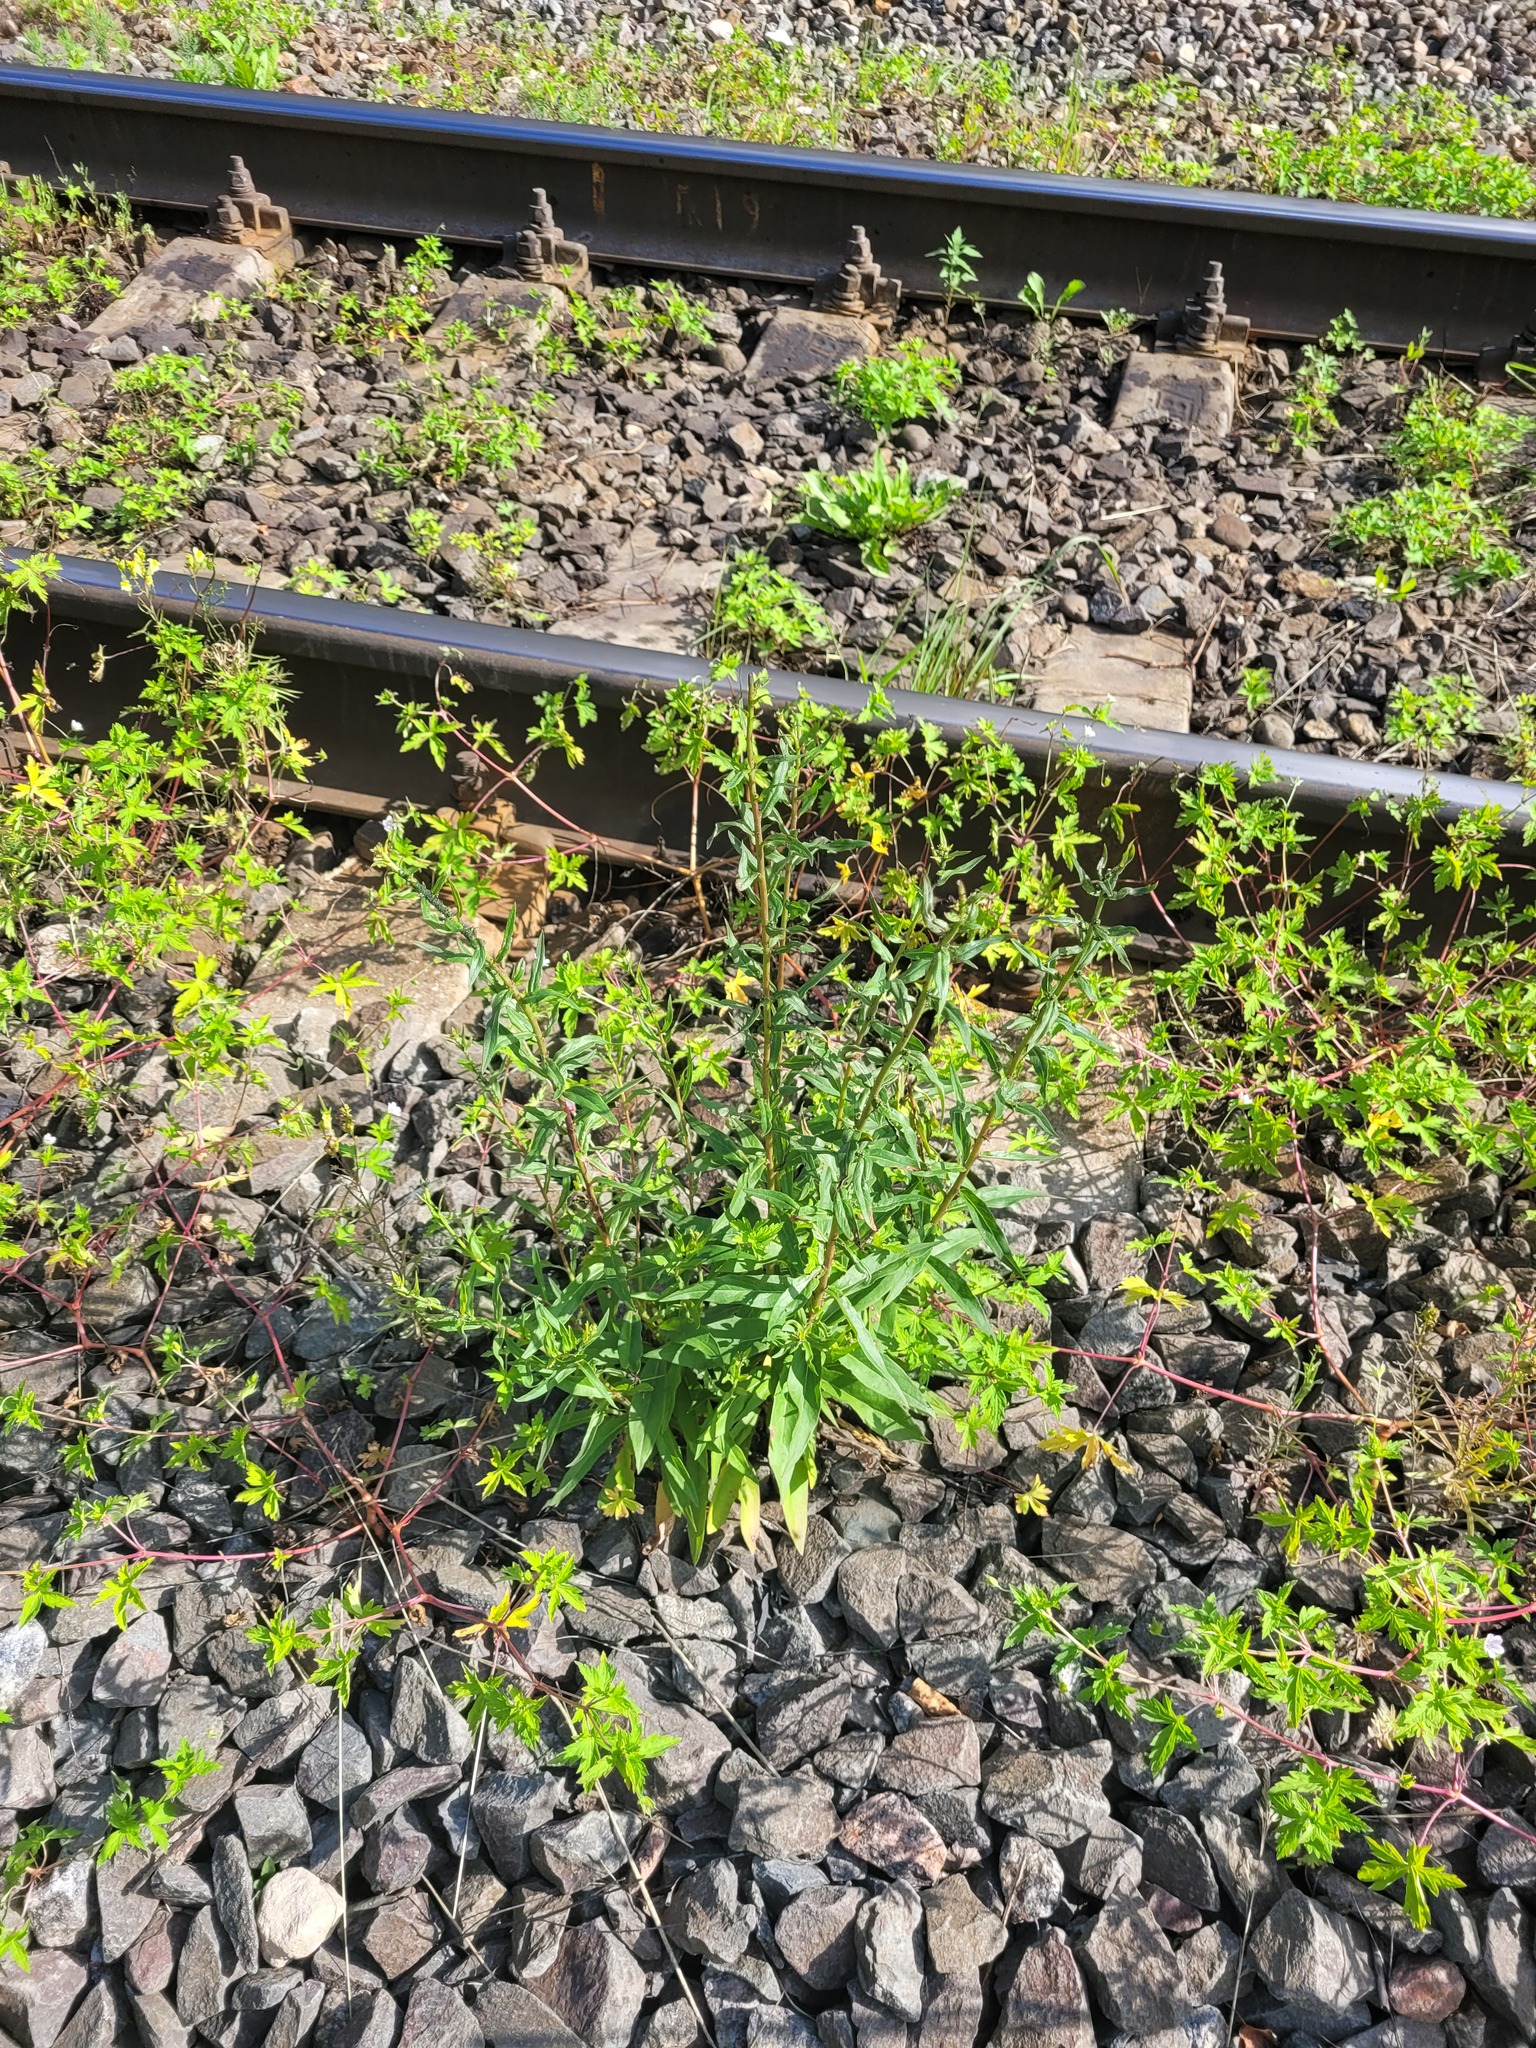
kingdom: Plantae
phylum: Tracheophyta
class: Magnoliopsida
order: Asterales
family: Asteraceae
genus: Hieracium
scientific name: Hieracium umbellatum
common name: Northern hawkweed
